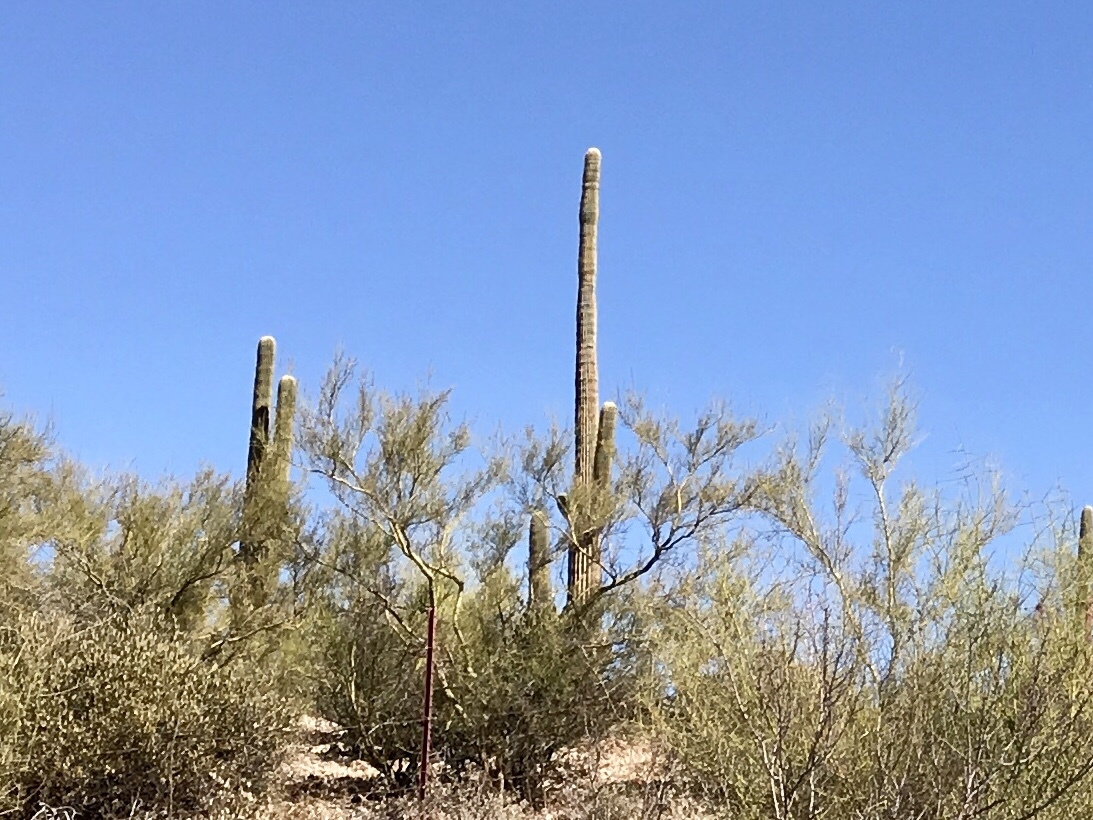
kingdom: Plantae
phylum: Tracheophyta
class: Magnoliopsida
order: Caryophyllales
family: Cactaceae
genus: Carnegiea
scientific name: Carnegiea gigantea
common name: Saguaro
